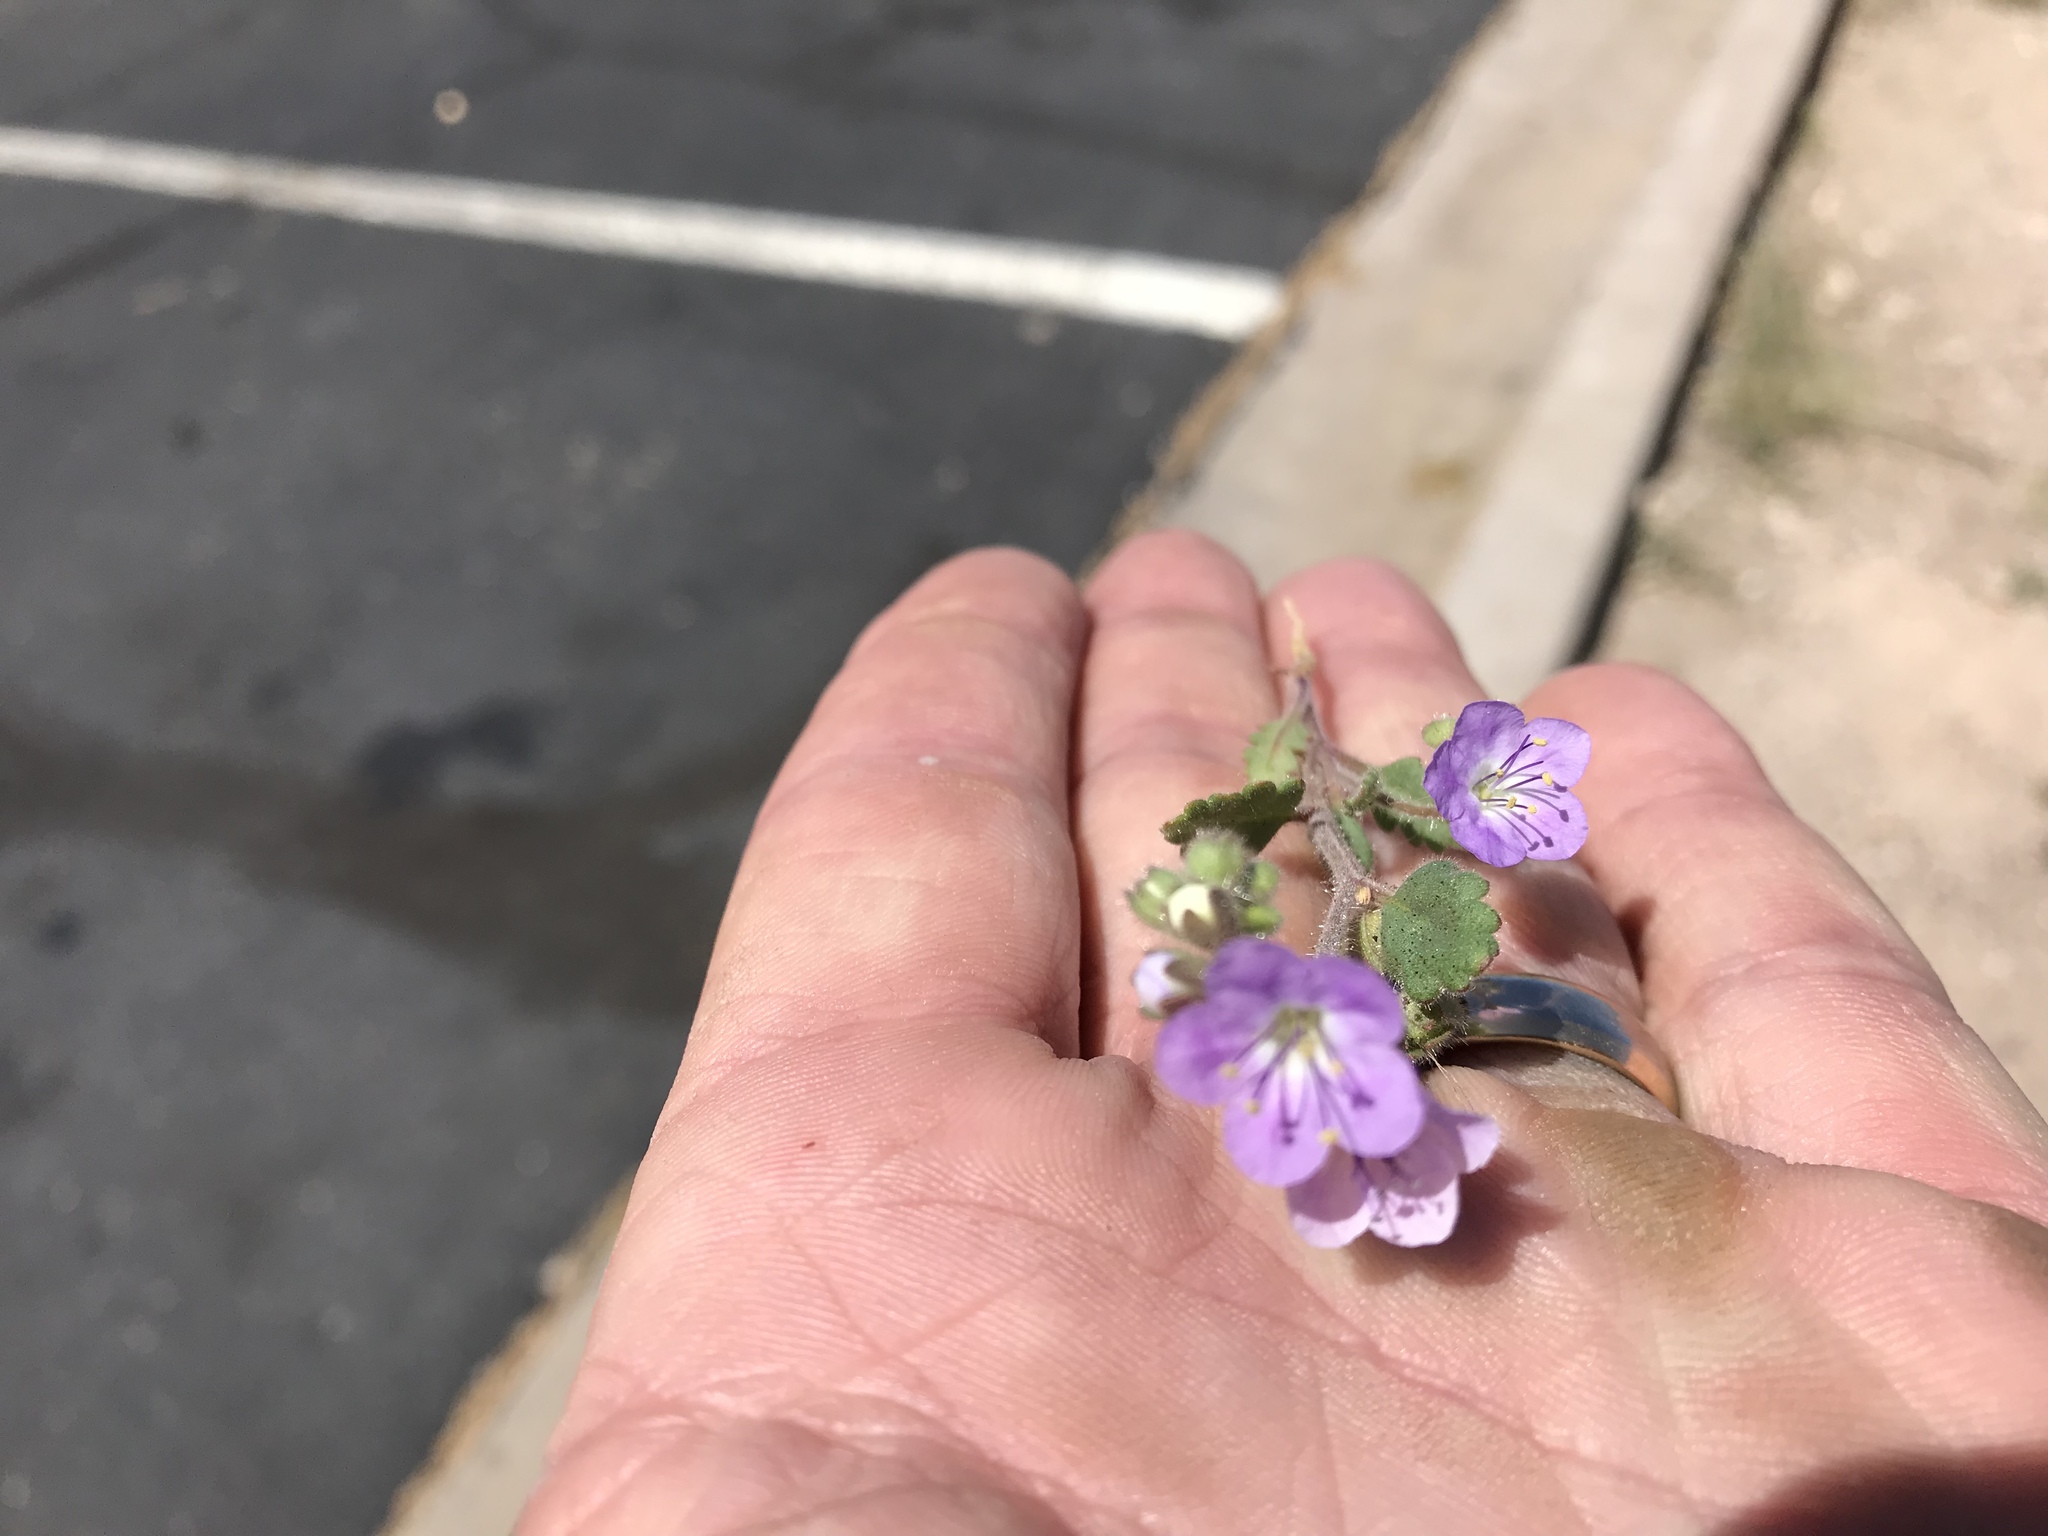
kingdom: Plantae
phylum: Tracheophyta
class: Magnoliopsida
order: Boraginales
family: Hydrophyllaceae
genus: Phacelia
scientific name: Phacelia crenulata
